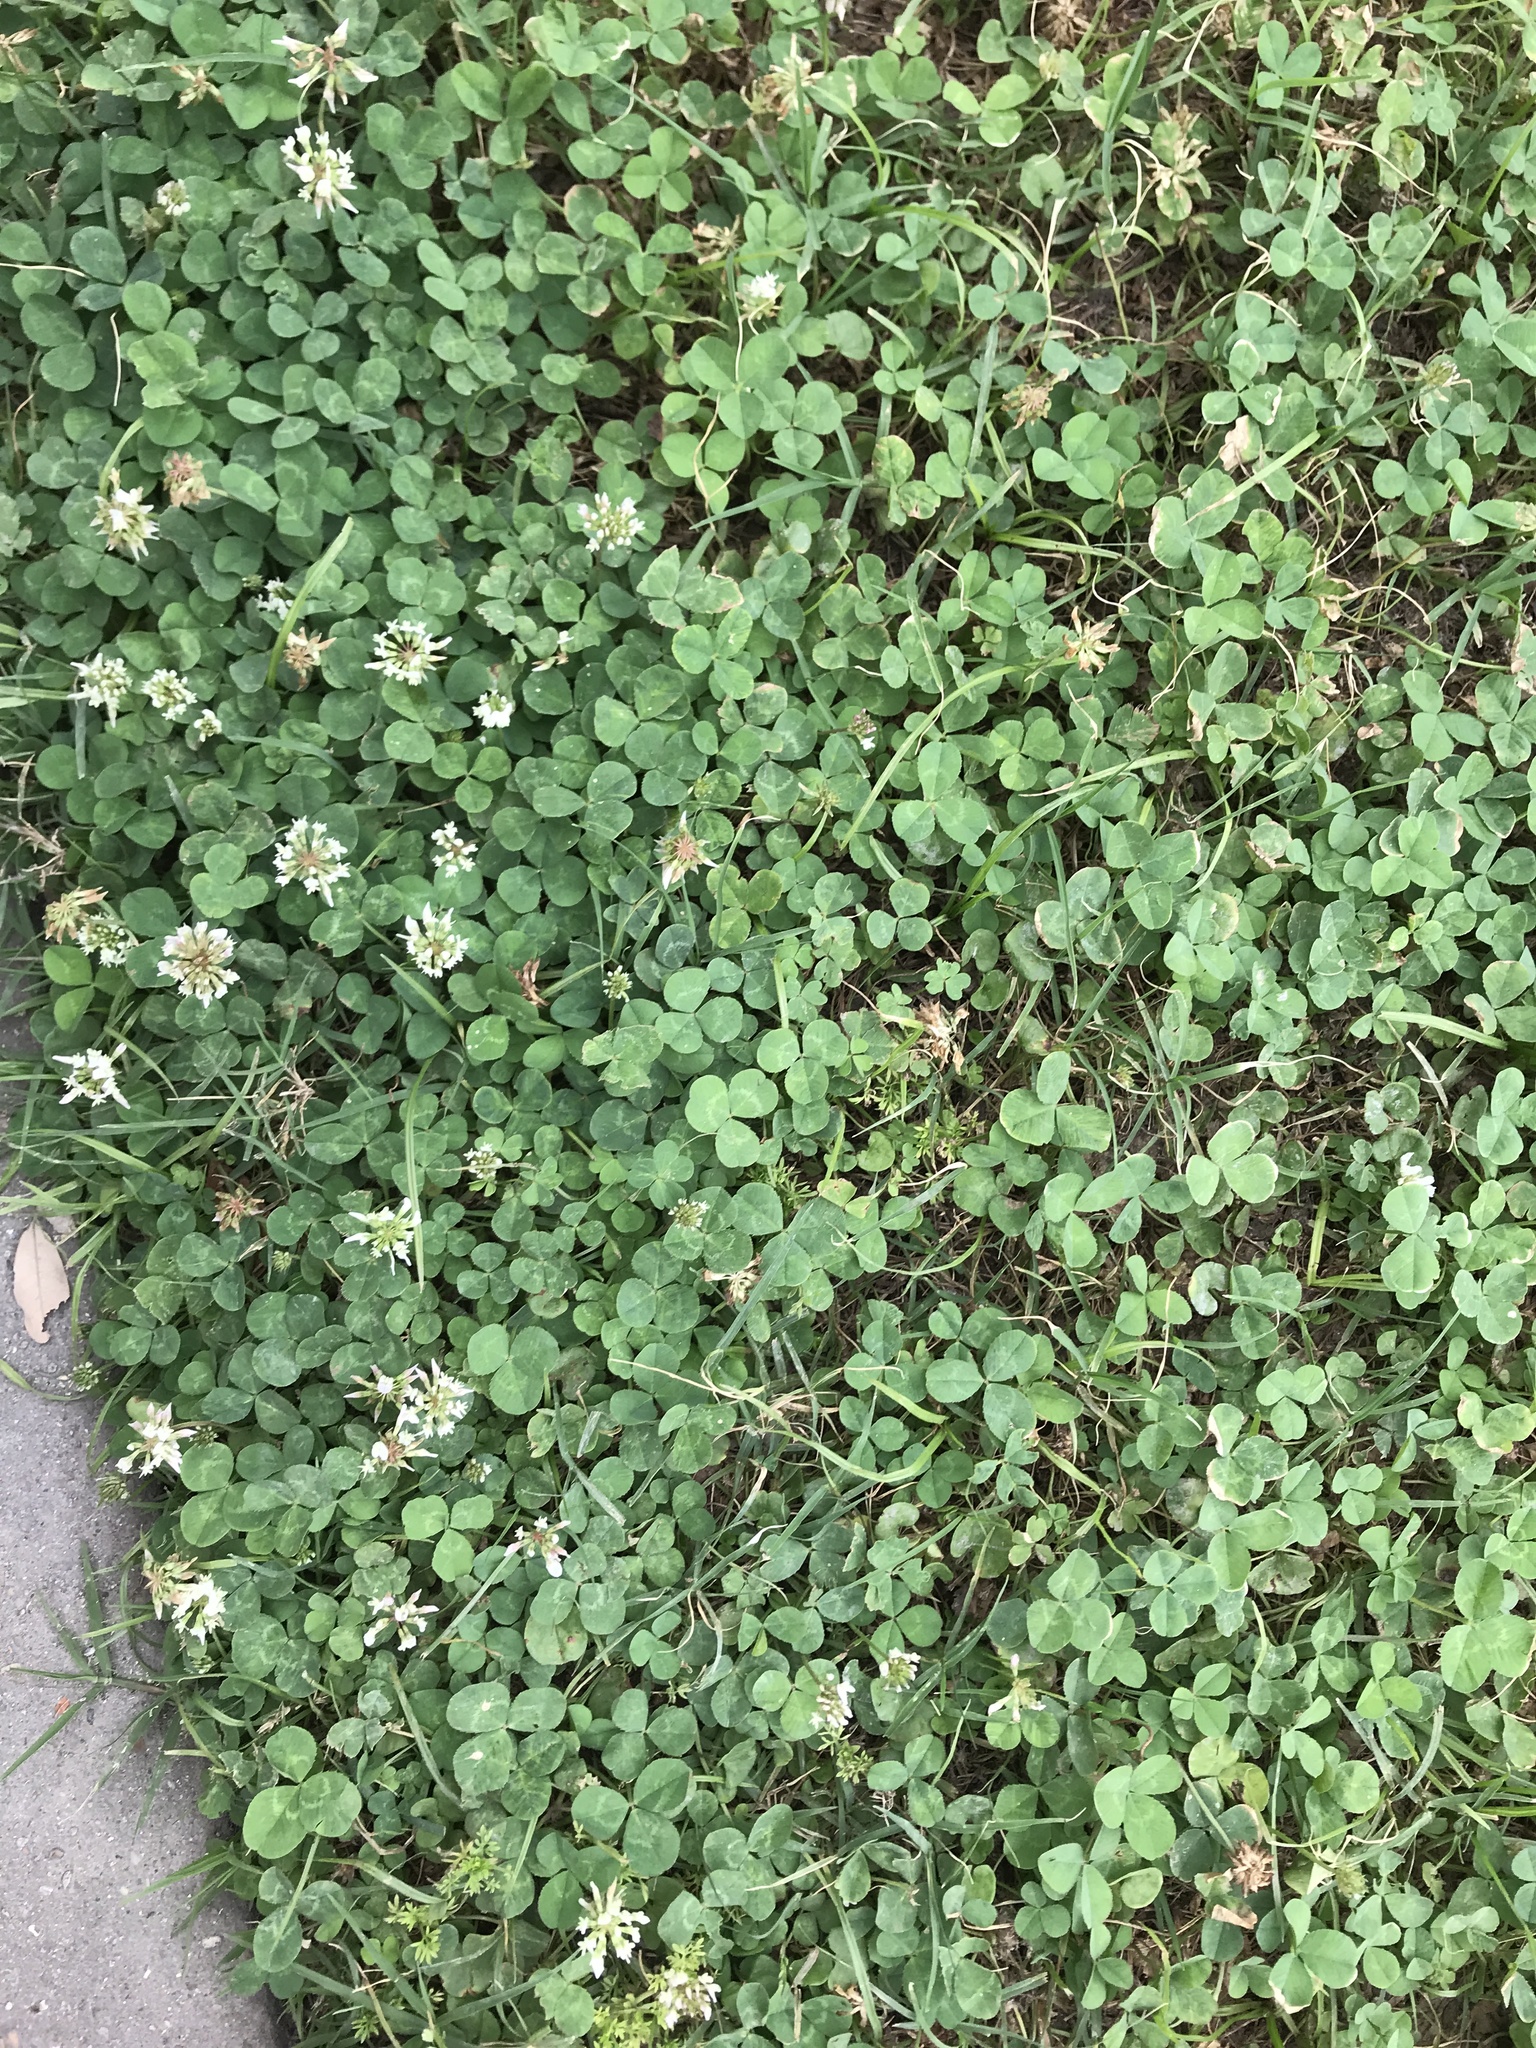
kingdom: Plantae
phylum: Tracheophyta
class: Magnoliopsida
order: Fabales
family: Fabaceae
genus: Trifolium
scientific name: Trifolium repens
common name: White clover
